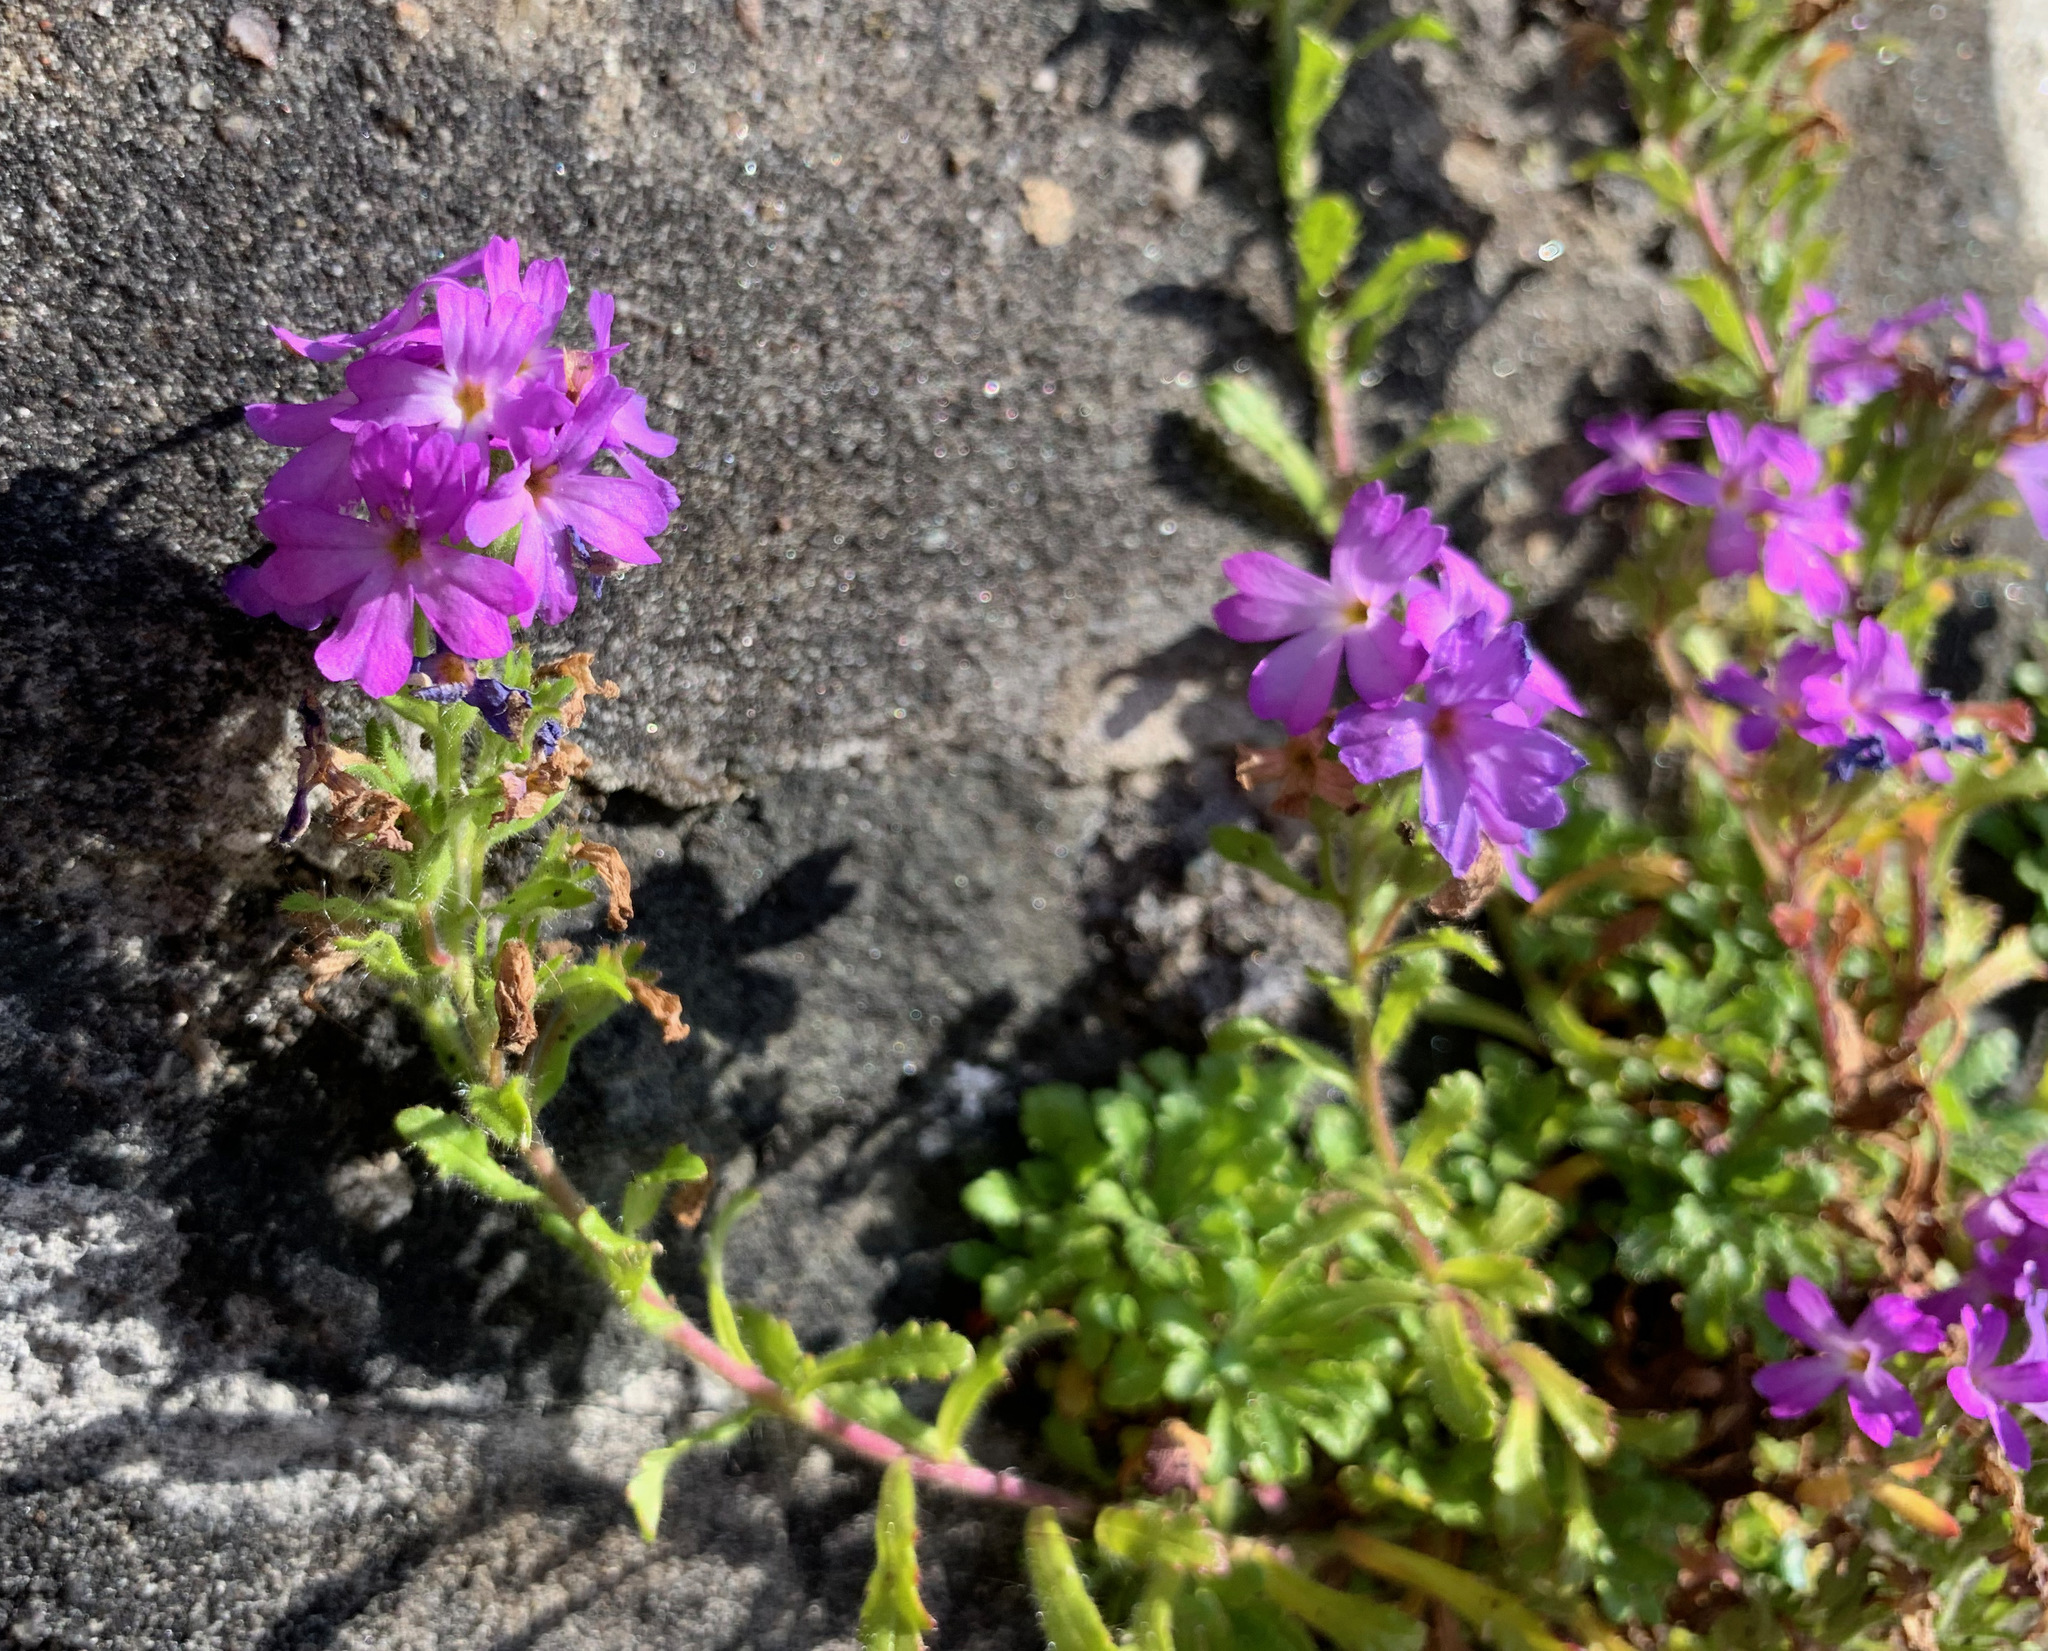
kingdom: Plantae
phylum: Tracheophyta
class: Magnoliopsida
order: Lamiales
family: Plantaginaceae
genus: Erinus
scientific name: Erinus alpinus
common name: Fairy foxglove
